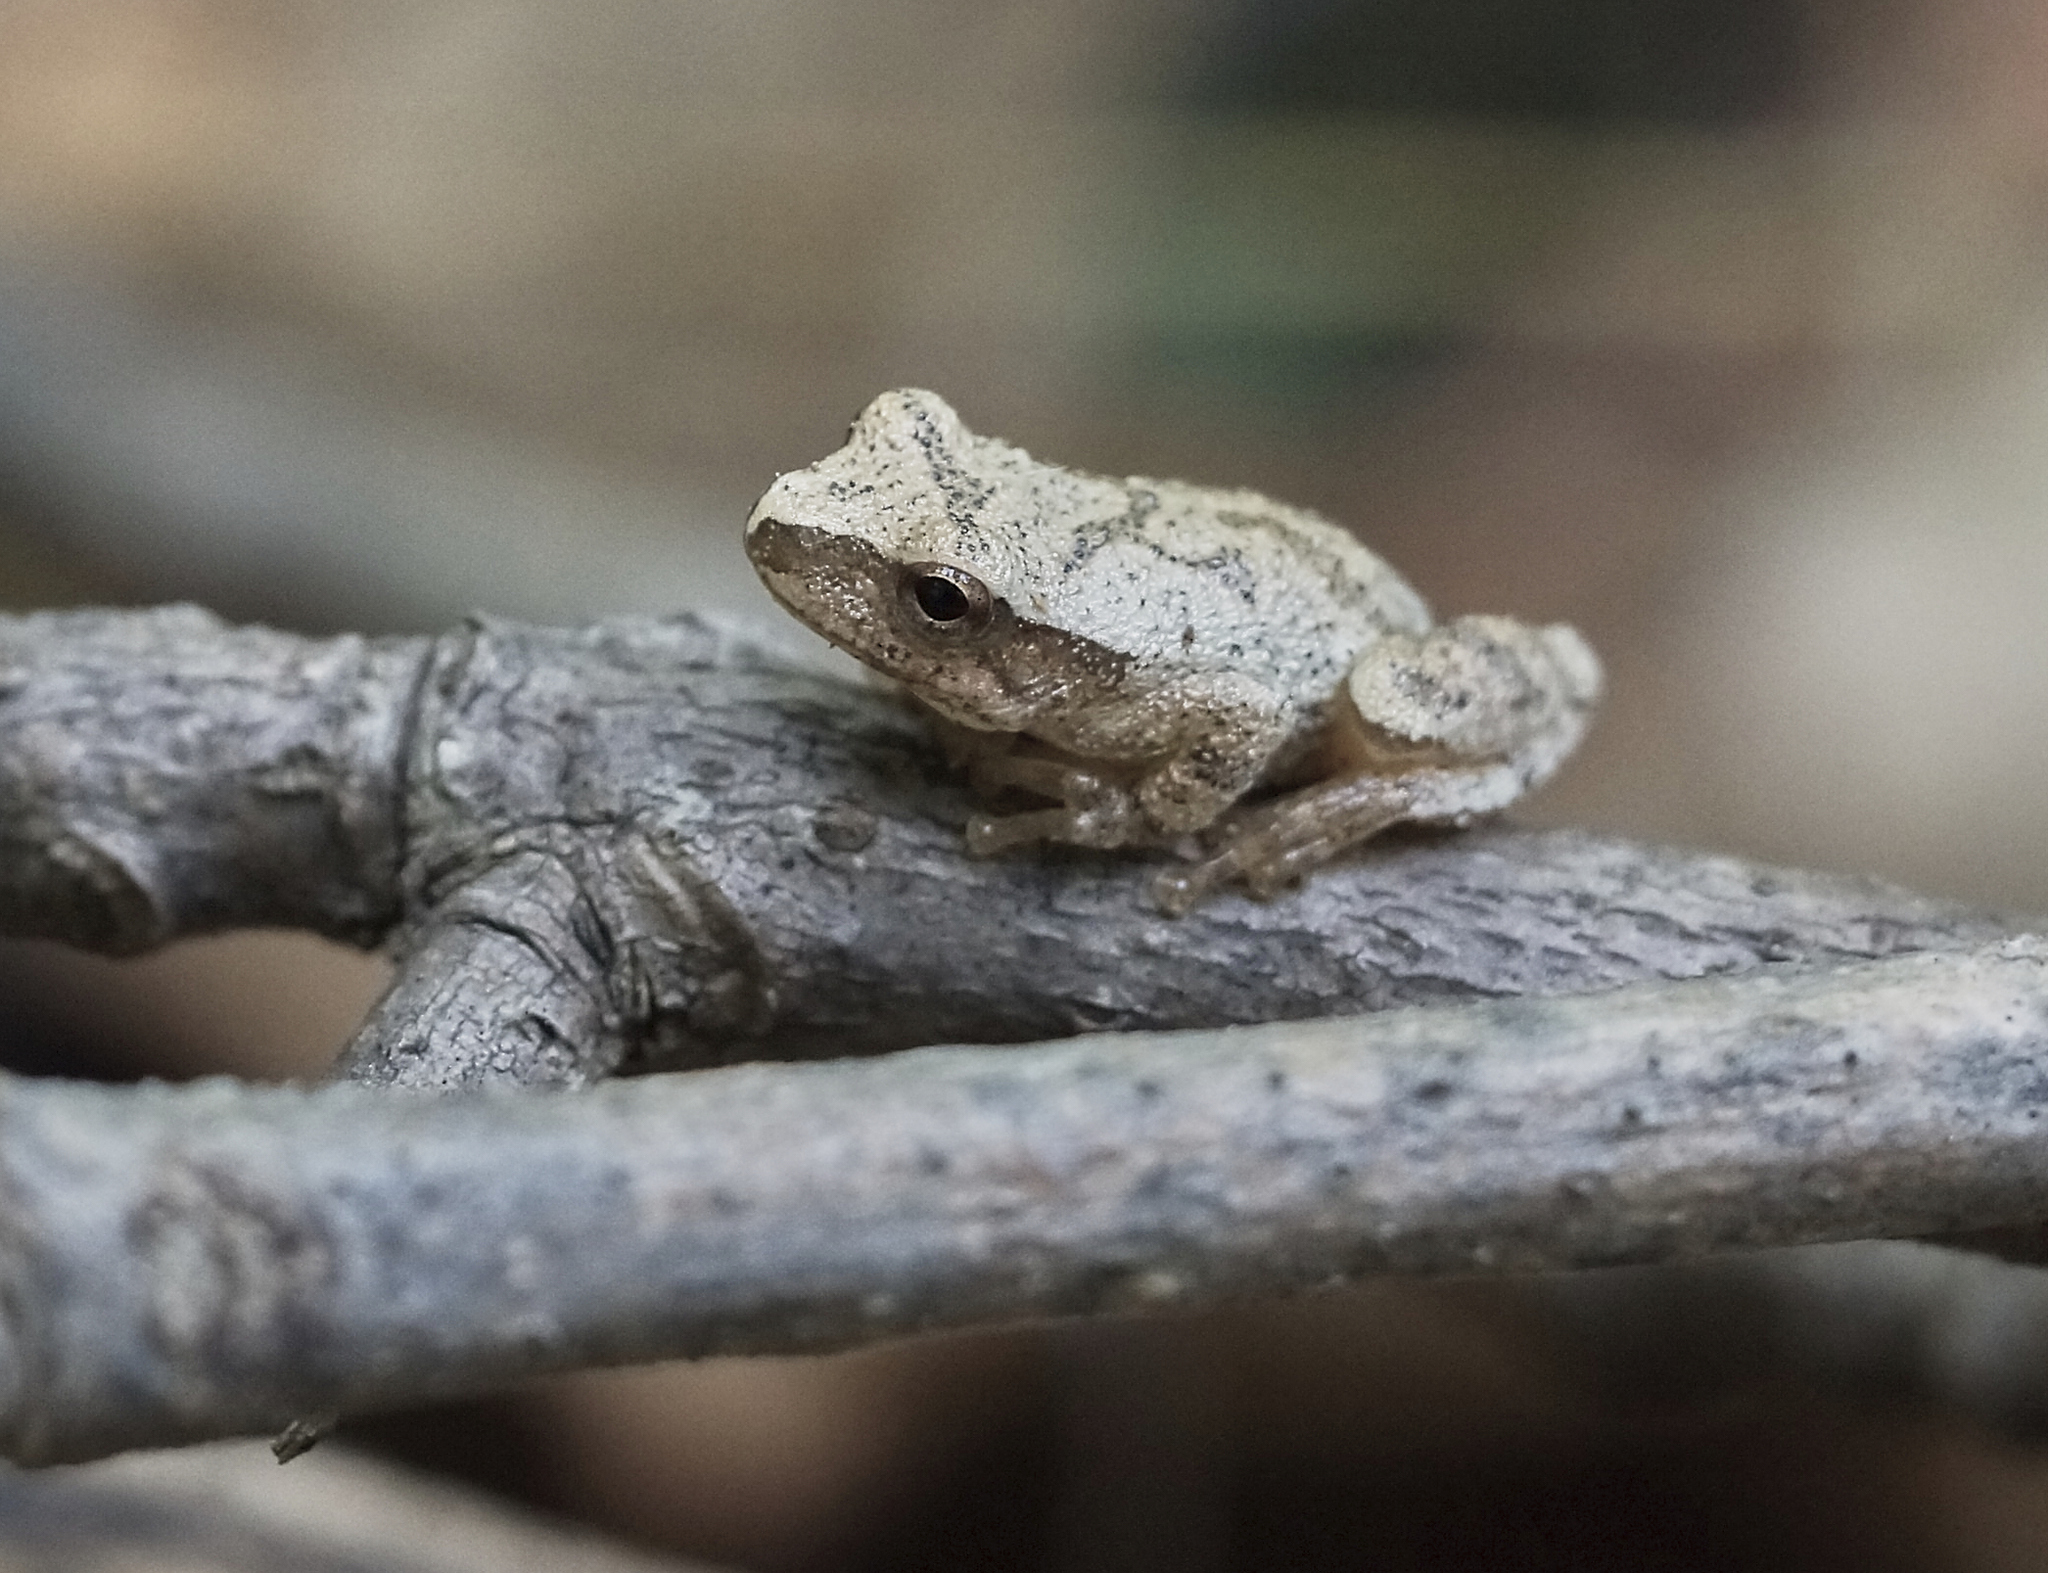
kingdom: Animalia
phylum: Chordata
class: Amphibia
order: Anura
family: Hylidae
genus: Pseudacris
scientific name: Pseudacris crucifer
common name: Spring peeper
